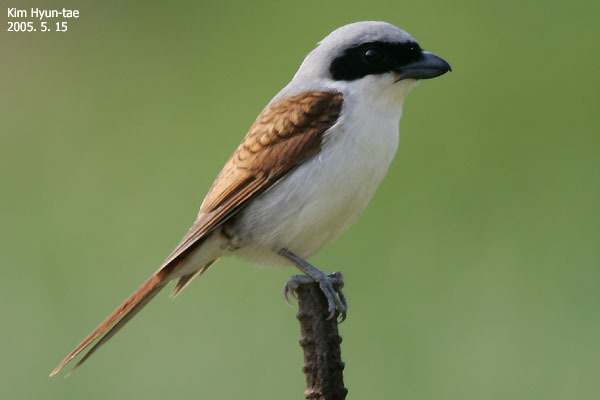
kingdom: Animalia
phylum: Chordata
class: Aves
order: Passeriformes
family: Laniidae
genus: Lanius
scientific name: Lanius tigrinus
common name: Tiger shrike
